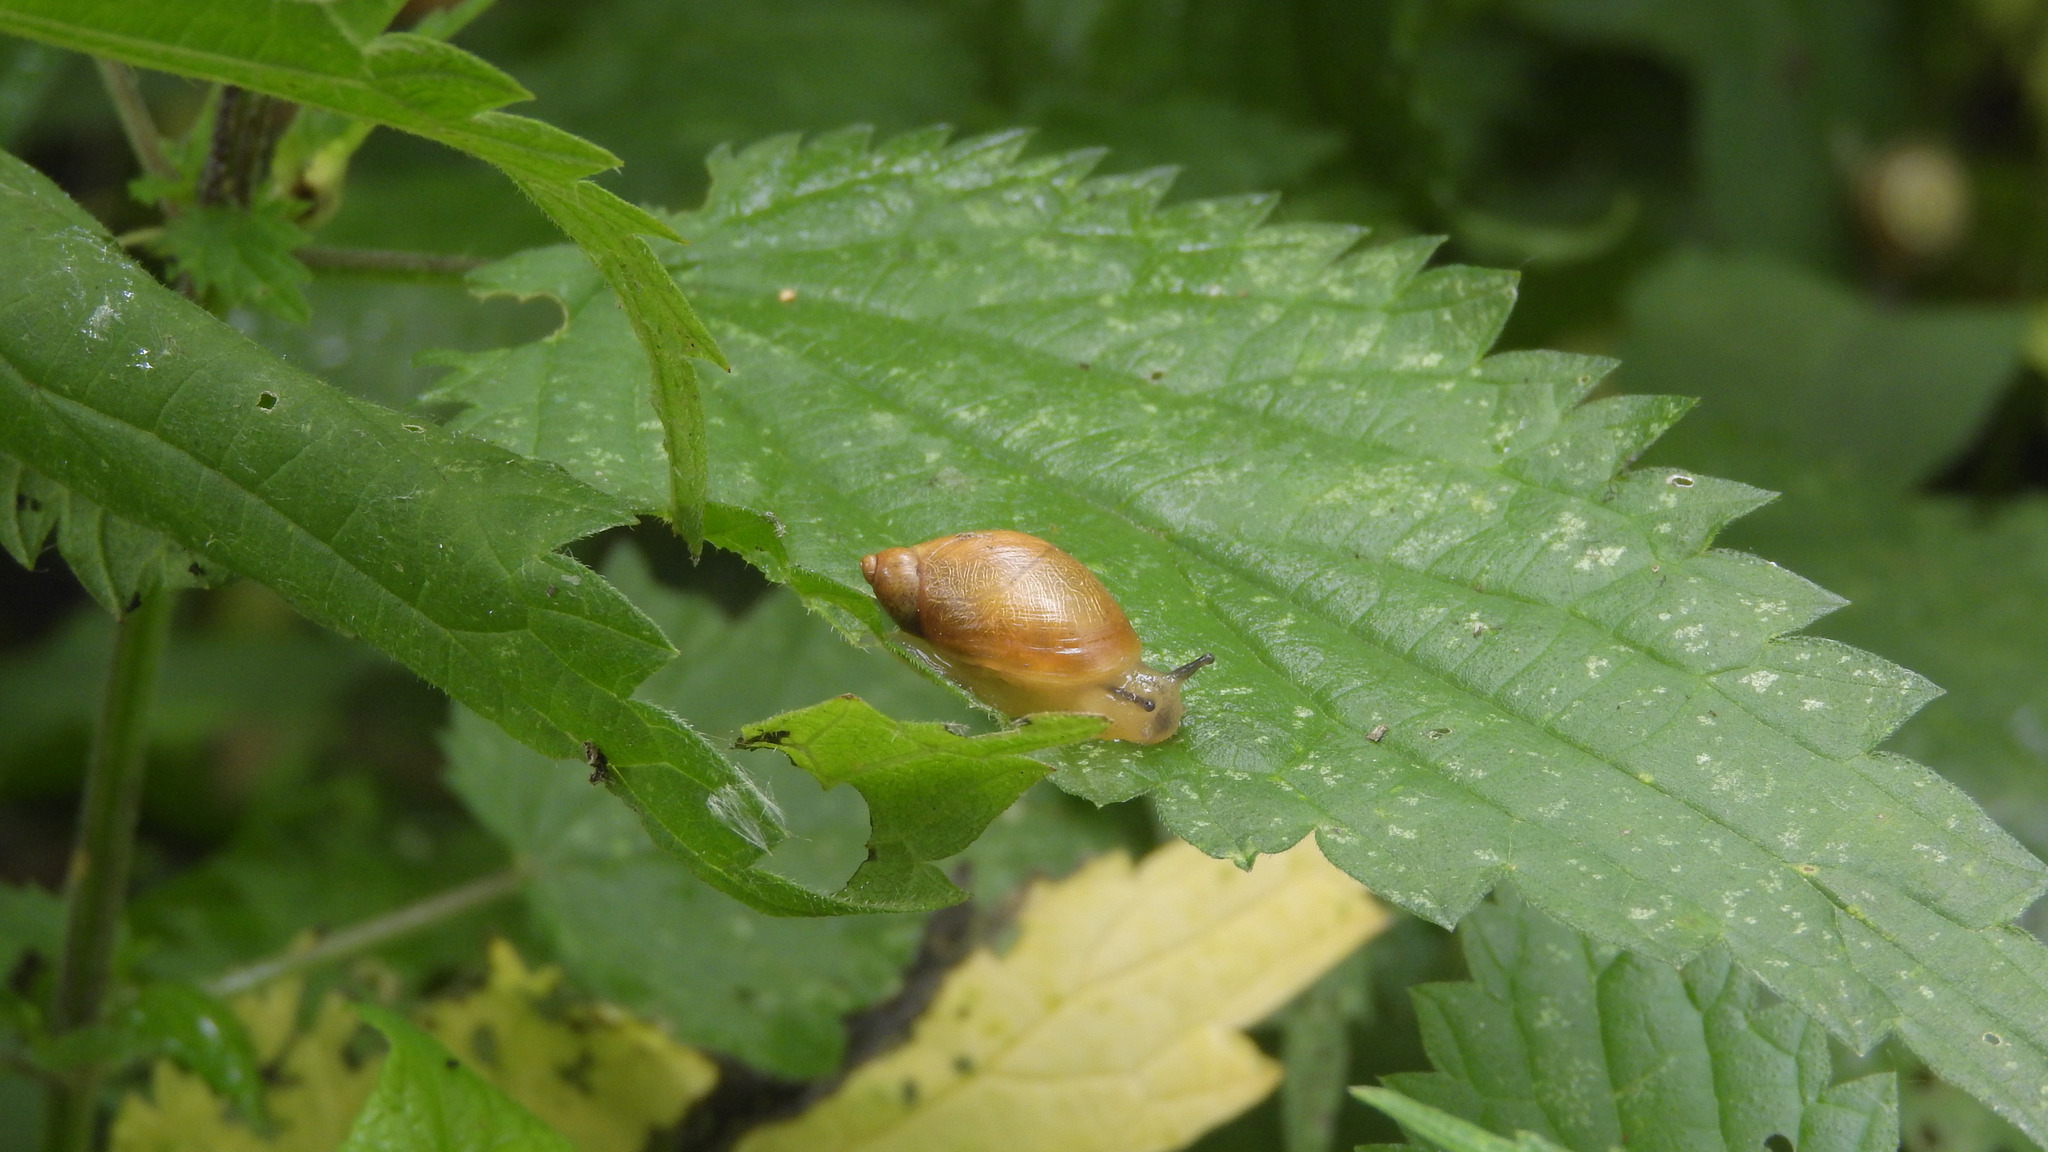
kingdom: Animalia
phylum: Mollusca
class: Gastropoda
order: Stylommatophora
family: Succineidae
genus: Succinea
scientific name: Succinea putris
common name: European ambersnail
